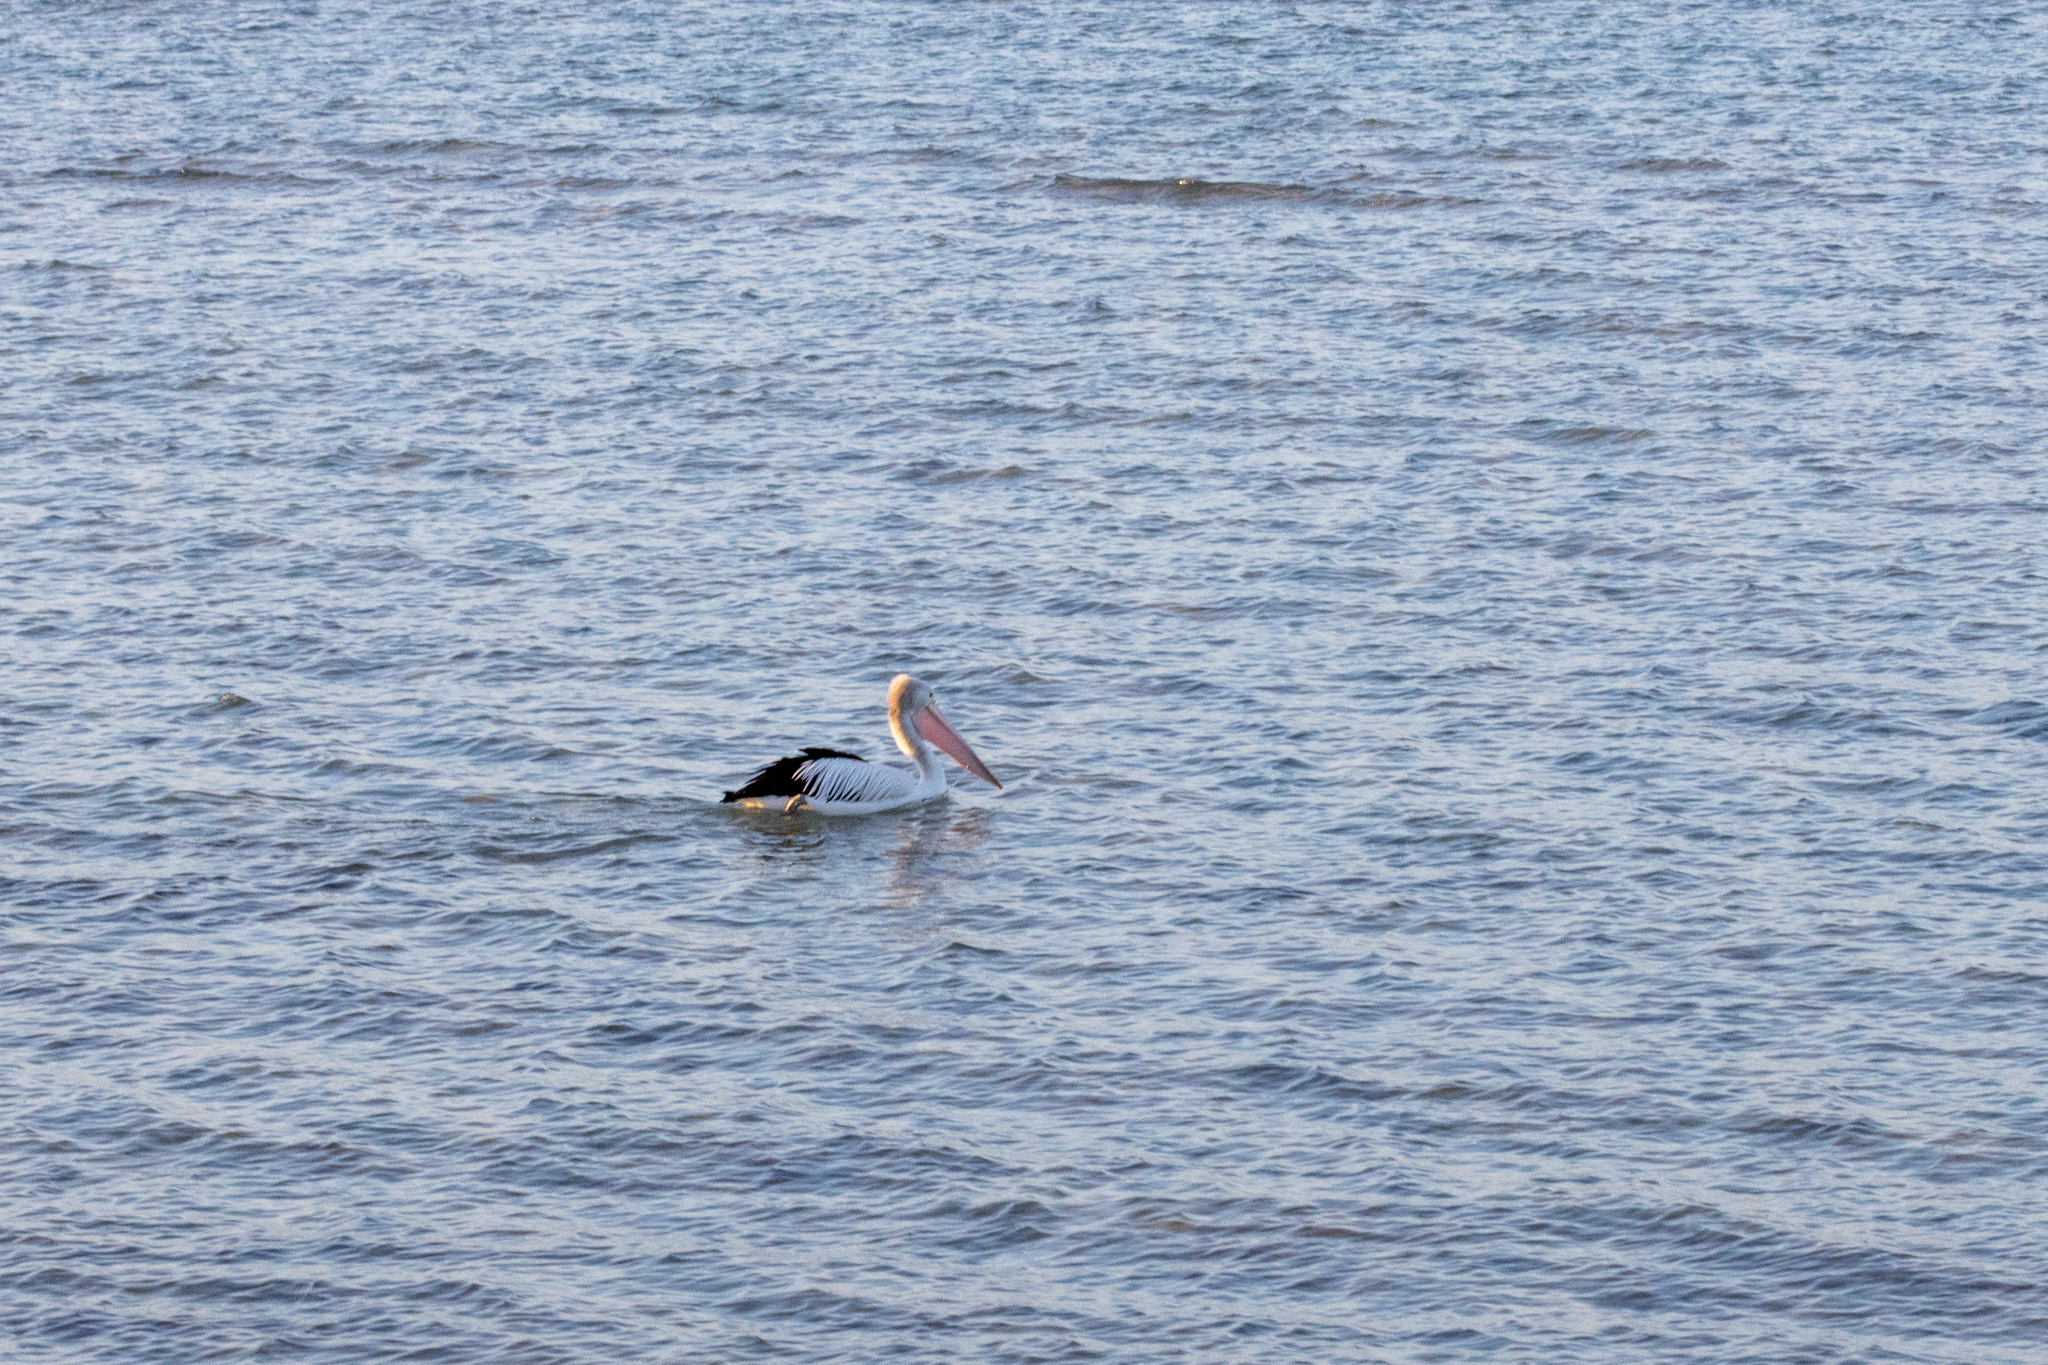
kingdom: Animalia
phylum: Chordata
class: Aves
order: Pelecaniformes
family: Pelecanidae
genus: Pelecanus
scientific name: Pelecanus conspicillatus
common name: Australian pelican
